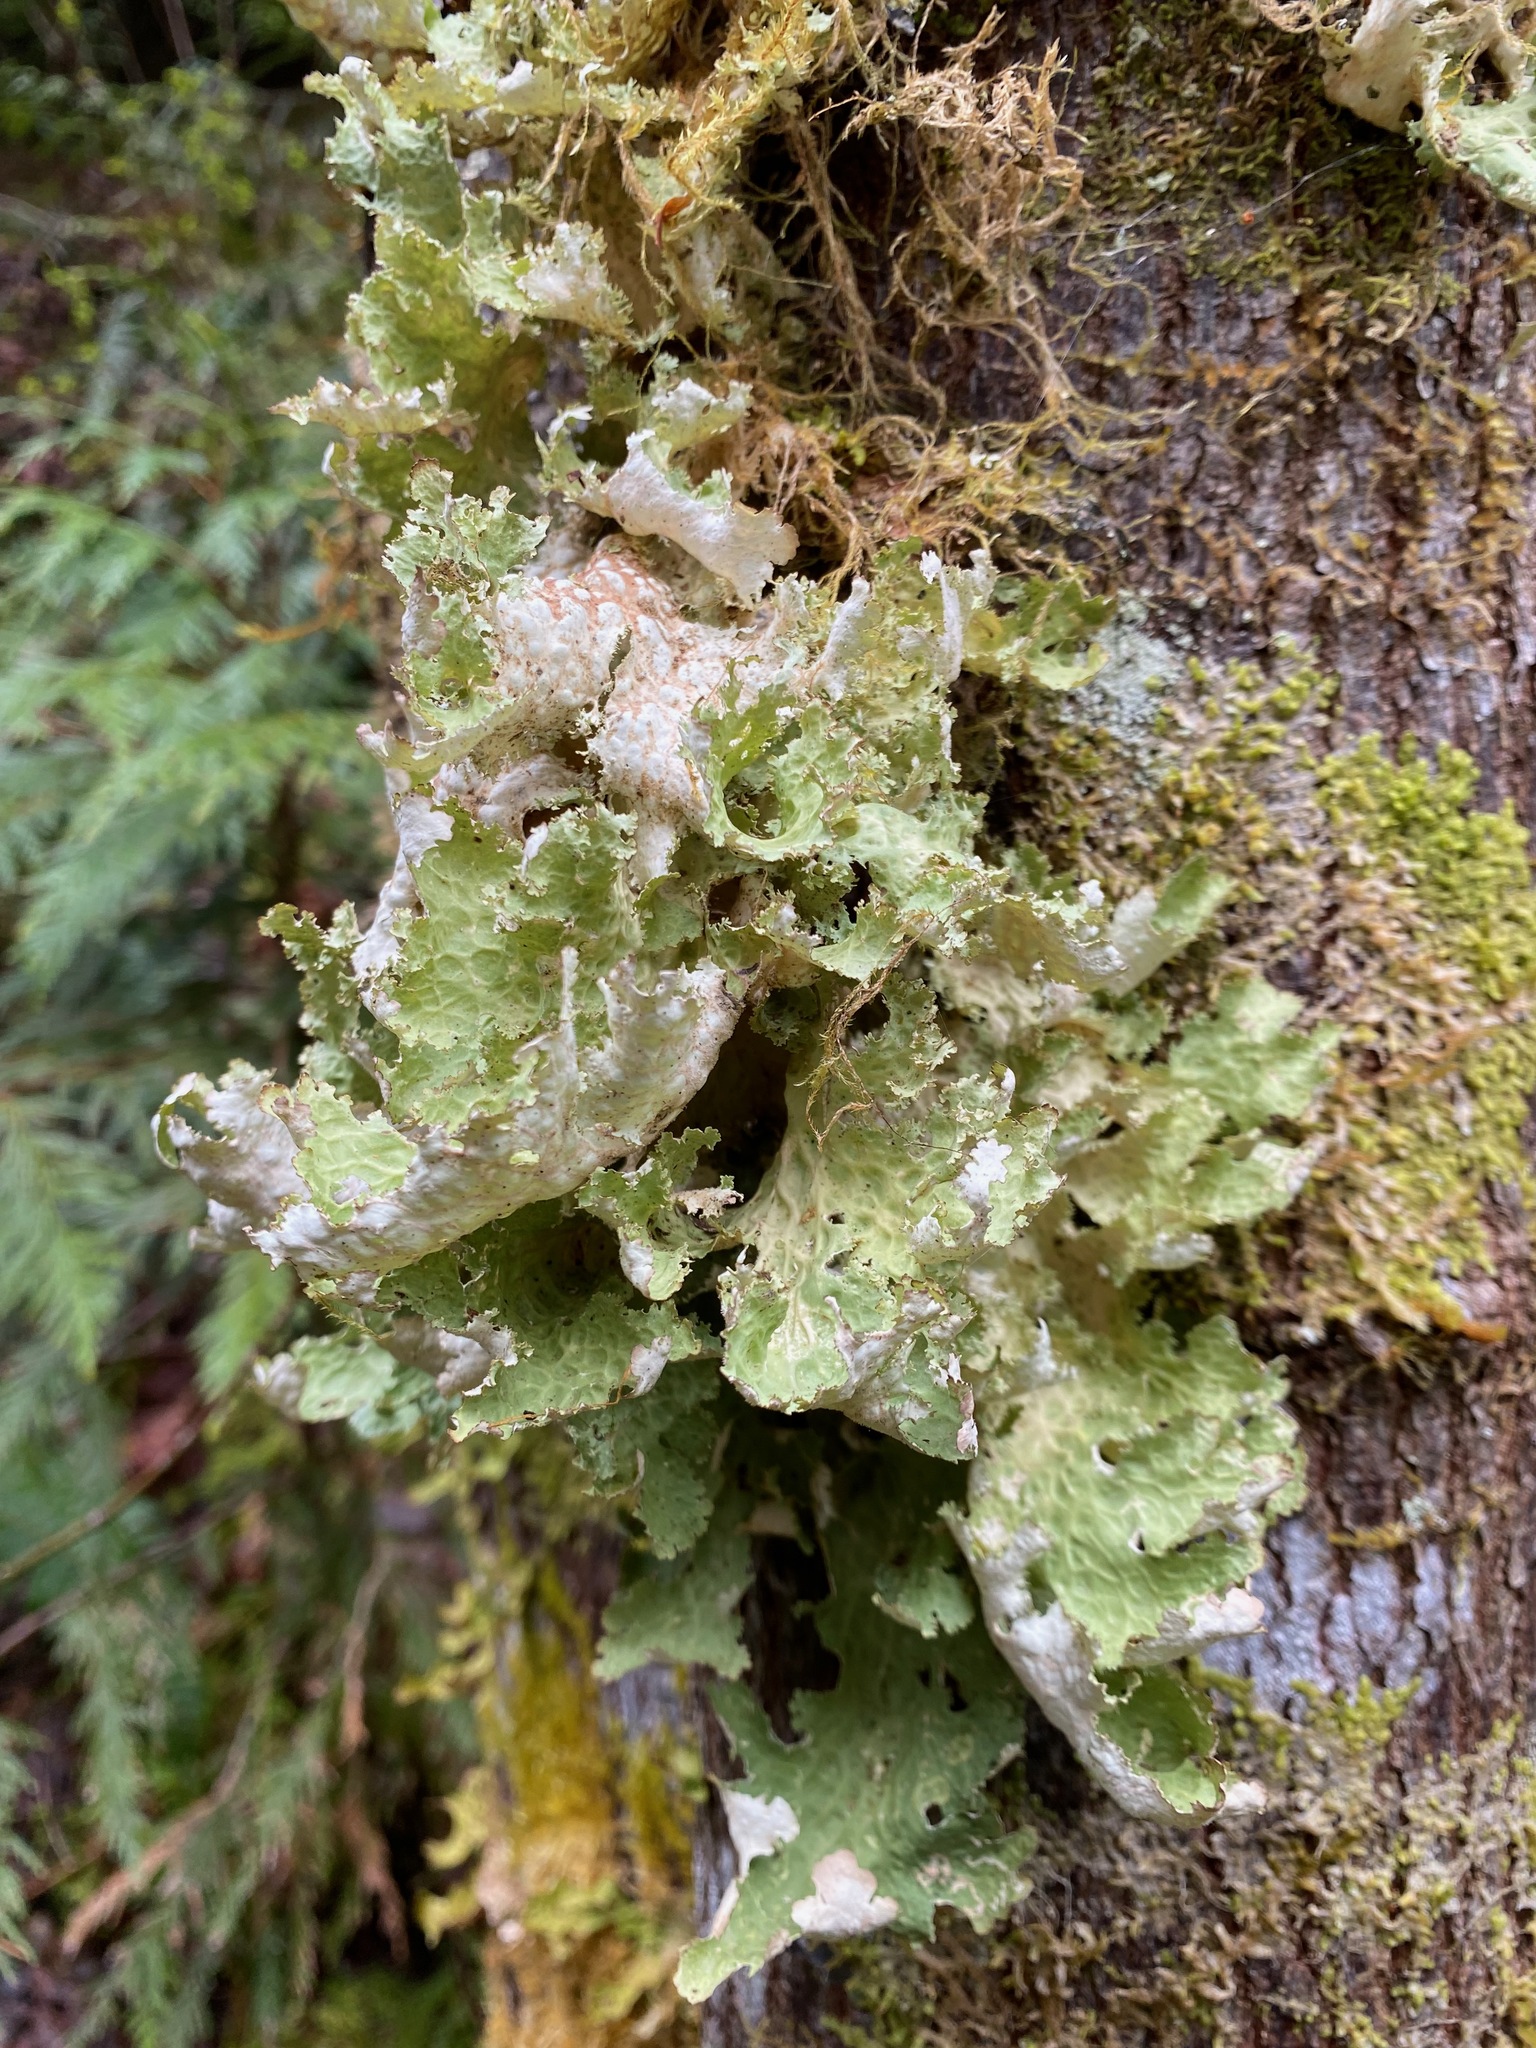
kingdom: Fungi
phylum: Ascomycota
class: Lecanoromycetes
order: Peltigerales
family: Lobariaceae
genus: Lobaria
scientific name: Lobaria oregana
